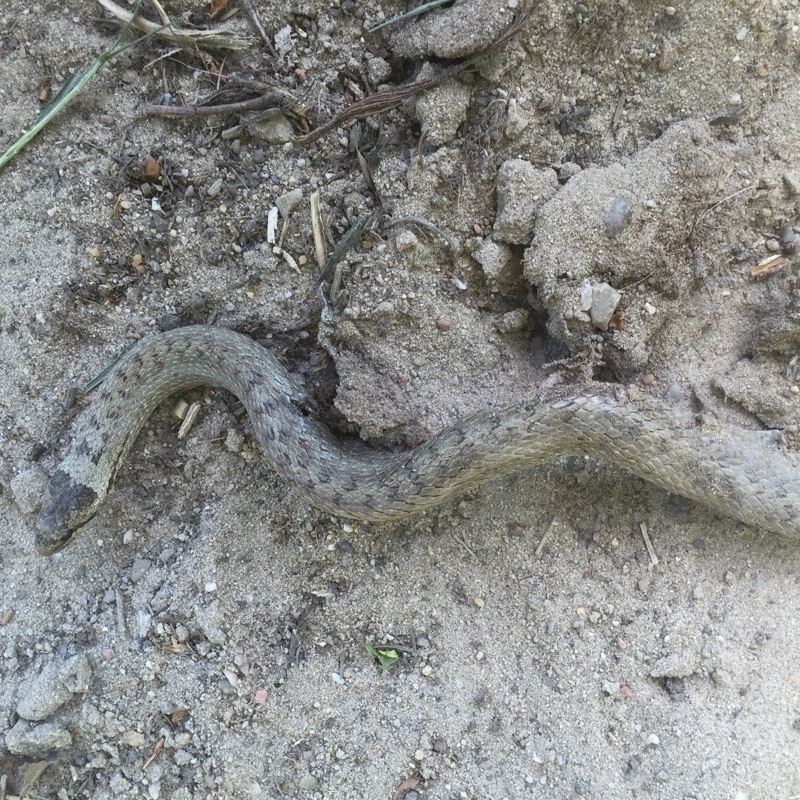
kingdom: Animalia
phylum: Chordata
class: Squamata
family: Colubridae
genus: Coronella
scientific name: Coronella austriaca
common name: Smooth snake
